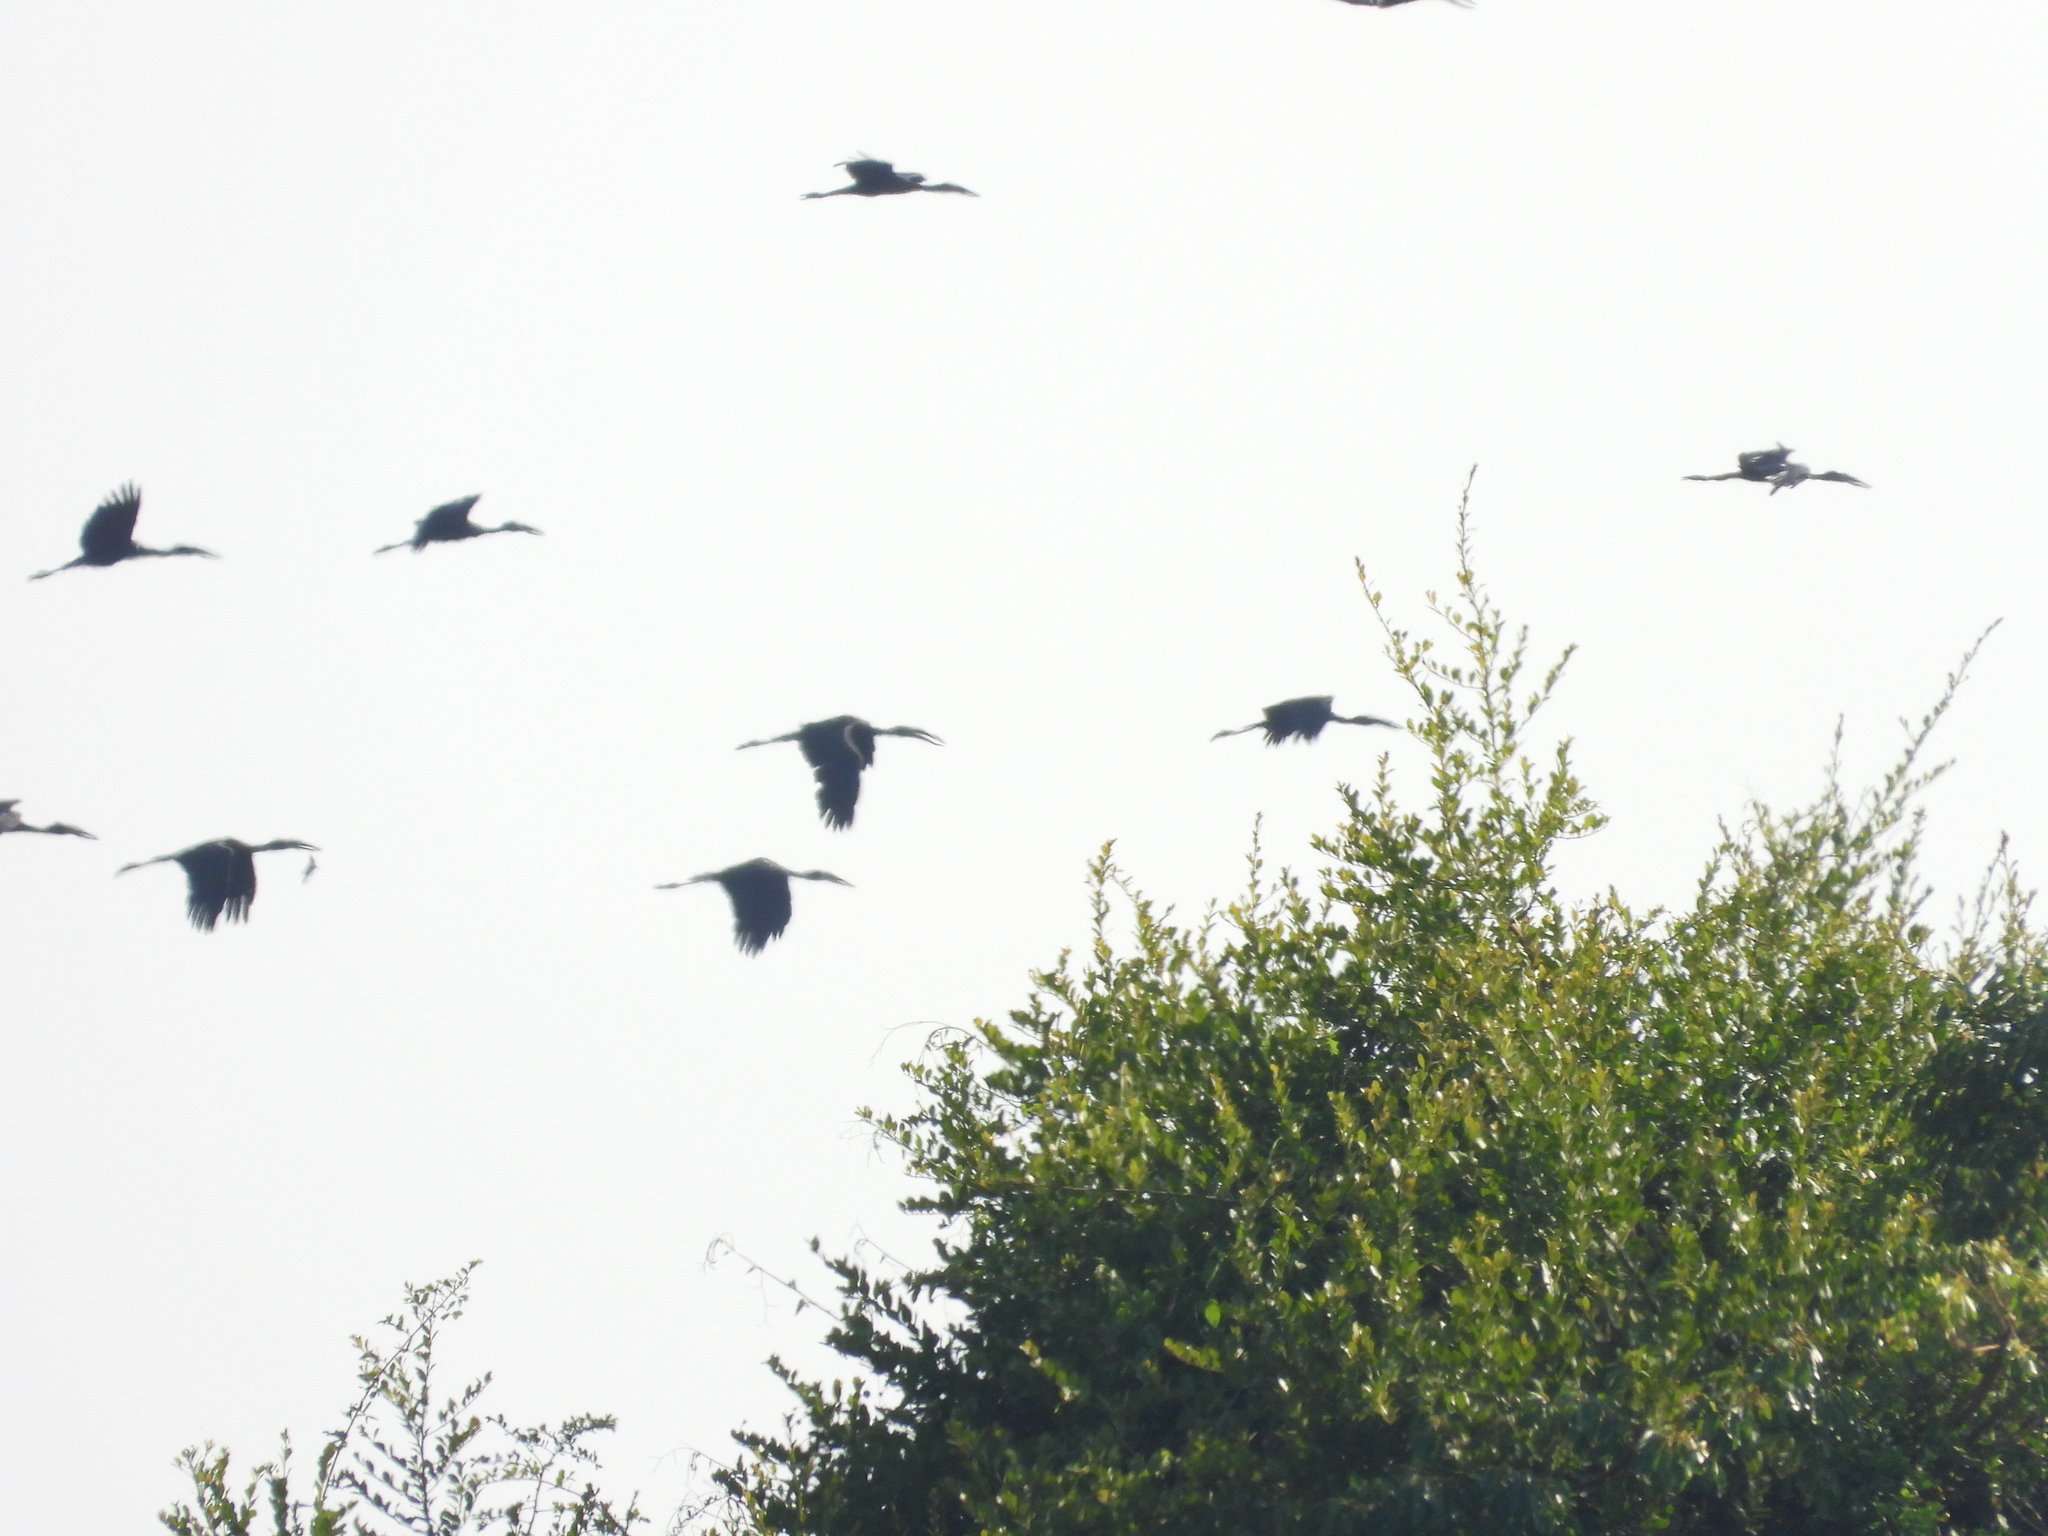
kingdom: Animalia
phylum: Chordata
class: Aves
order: Ciconiiformes
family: Ciconiidae
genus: Anastomus
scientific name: Anastomus lamelligerus
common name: African openbill
